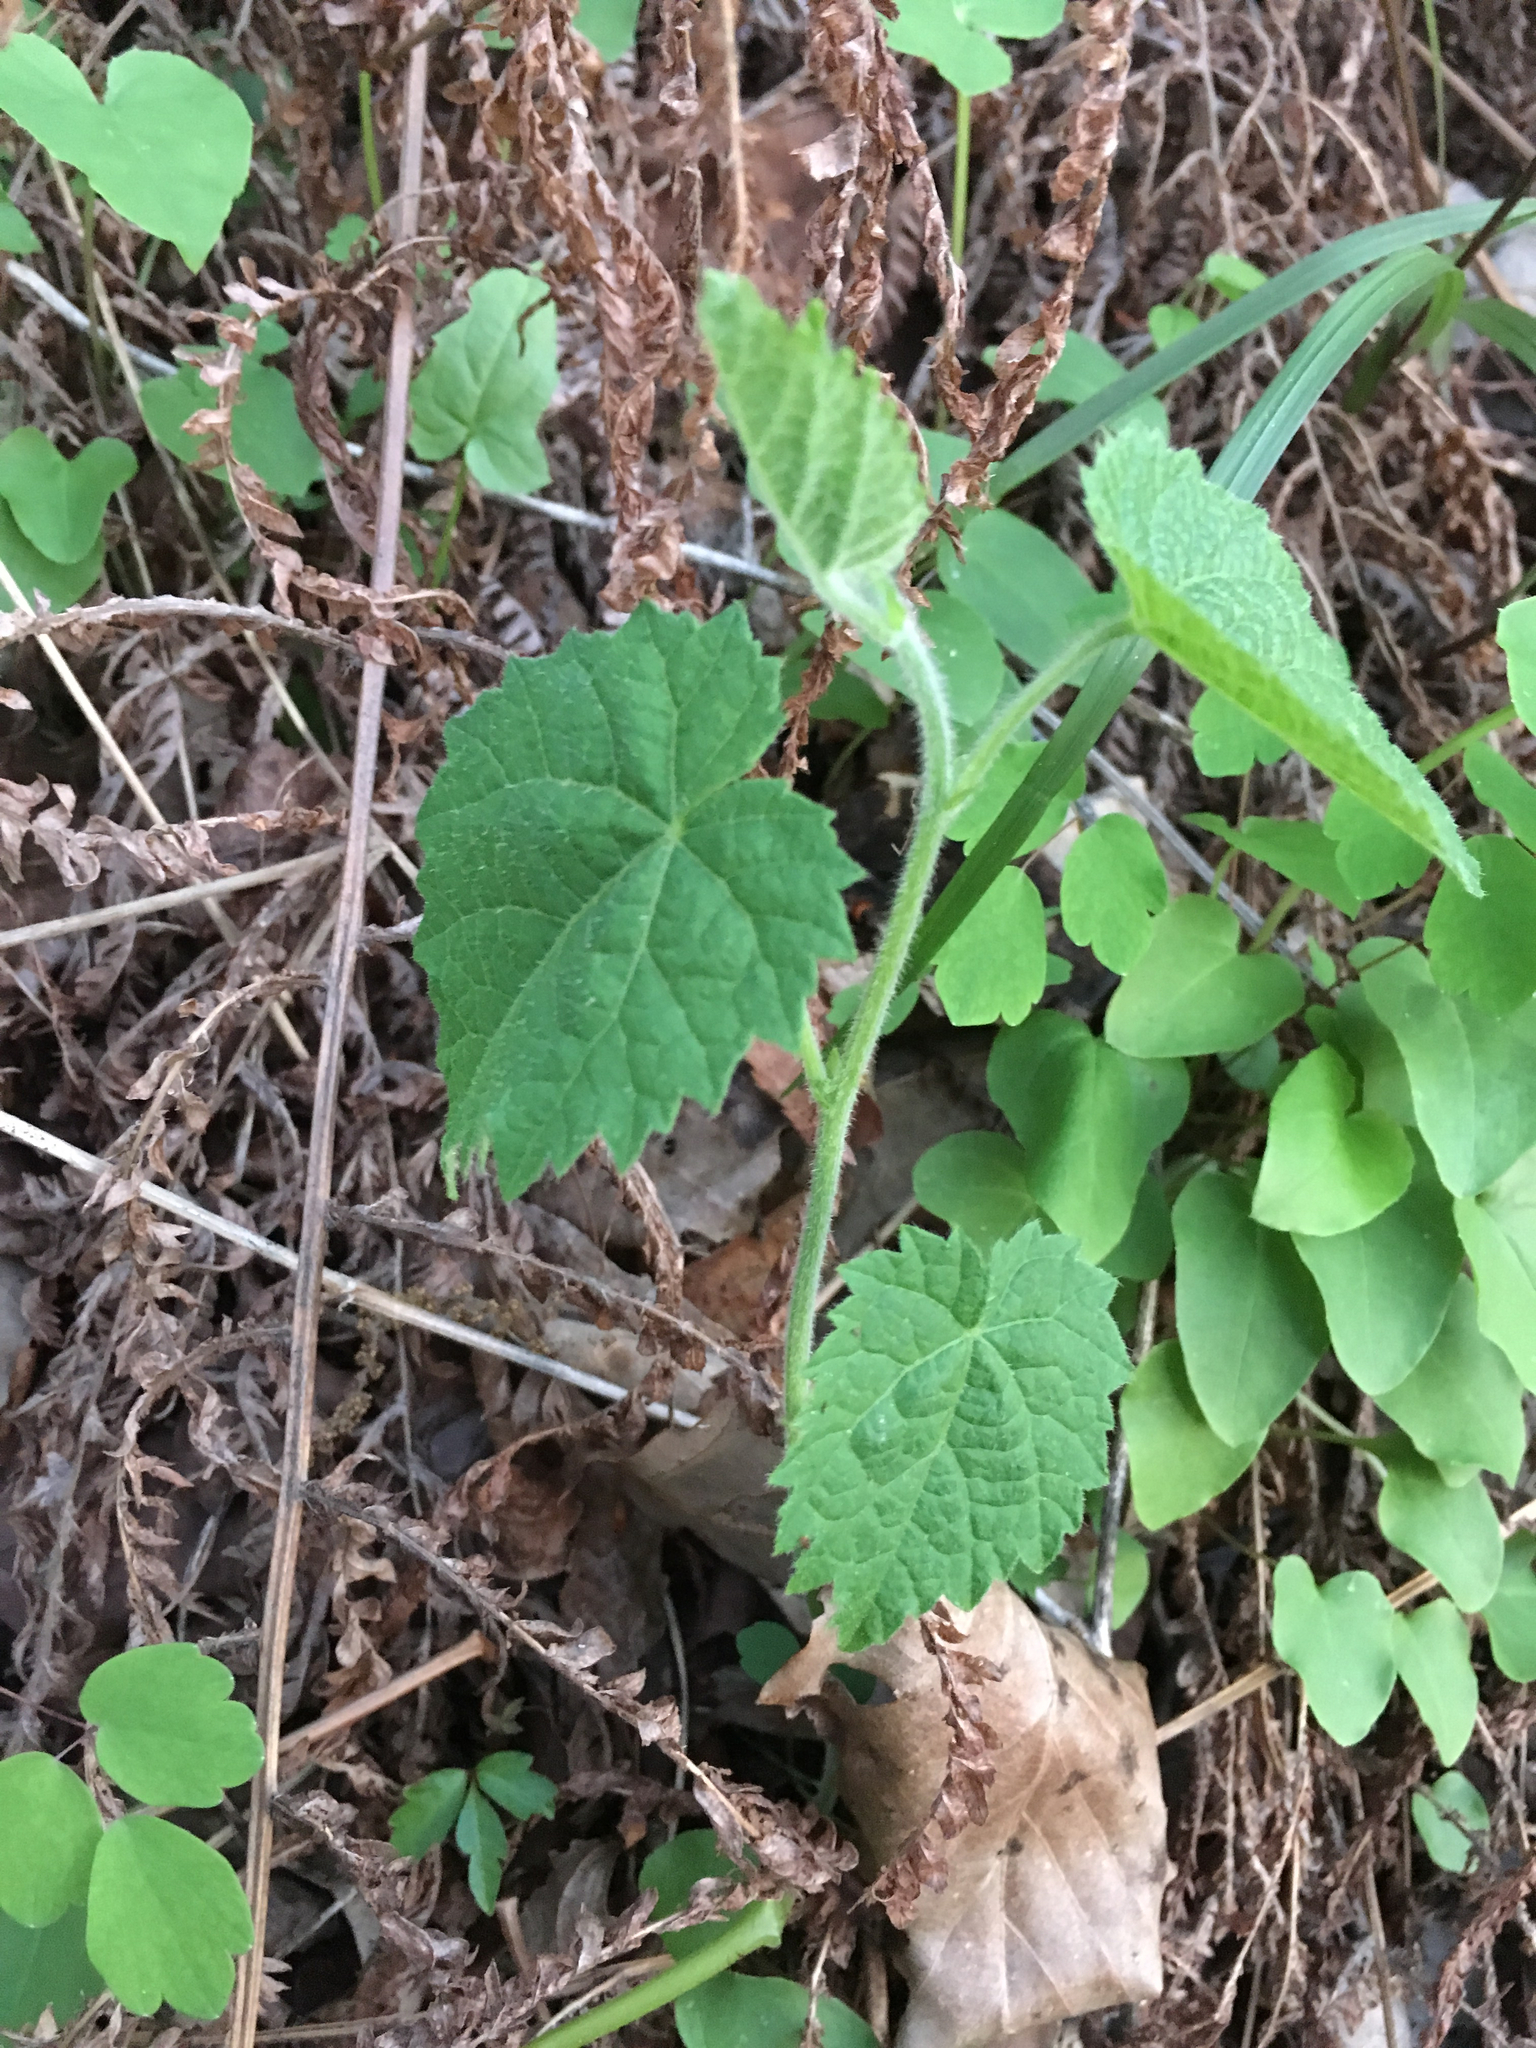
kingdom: Plantae
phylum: Tracheophyta
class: Magnoliopsida
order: Malpighiales
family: Euphorbiaceae
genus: Tragia
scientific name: Tragia cordata
